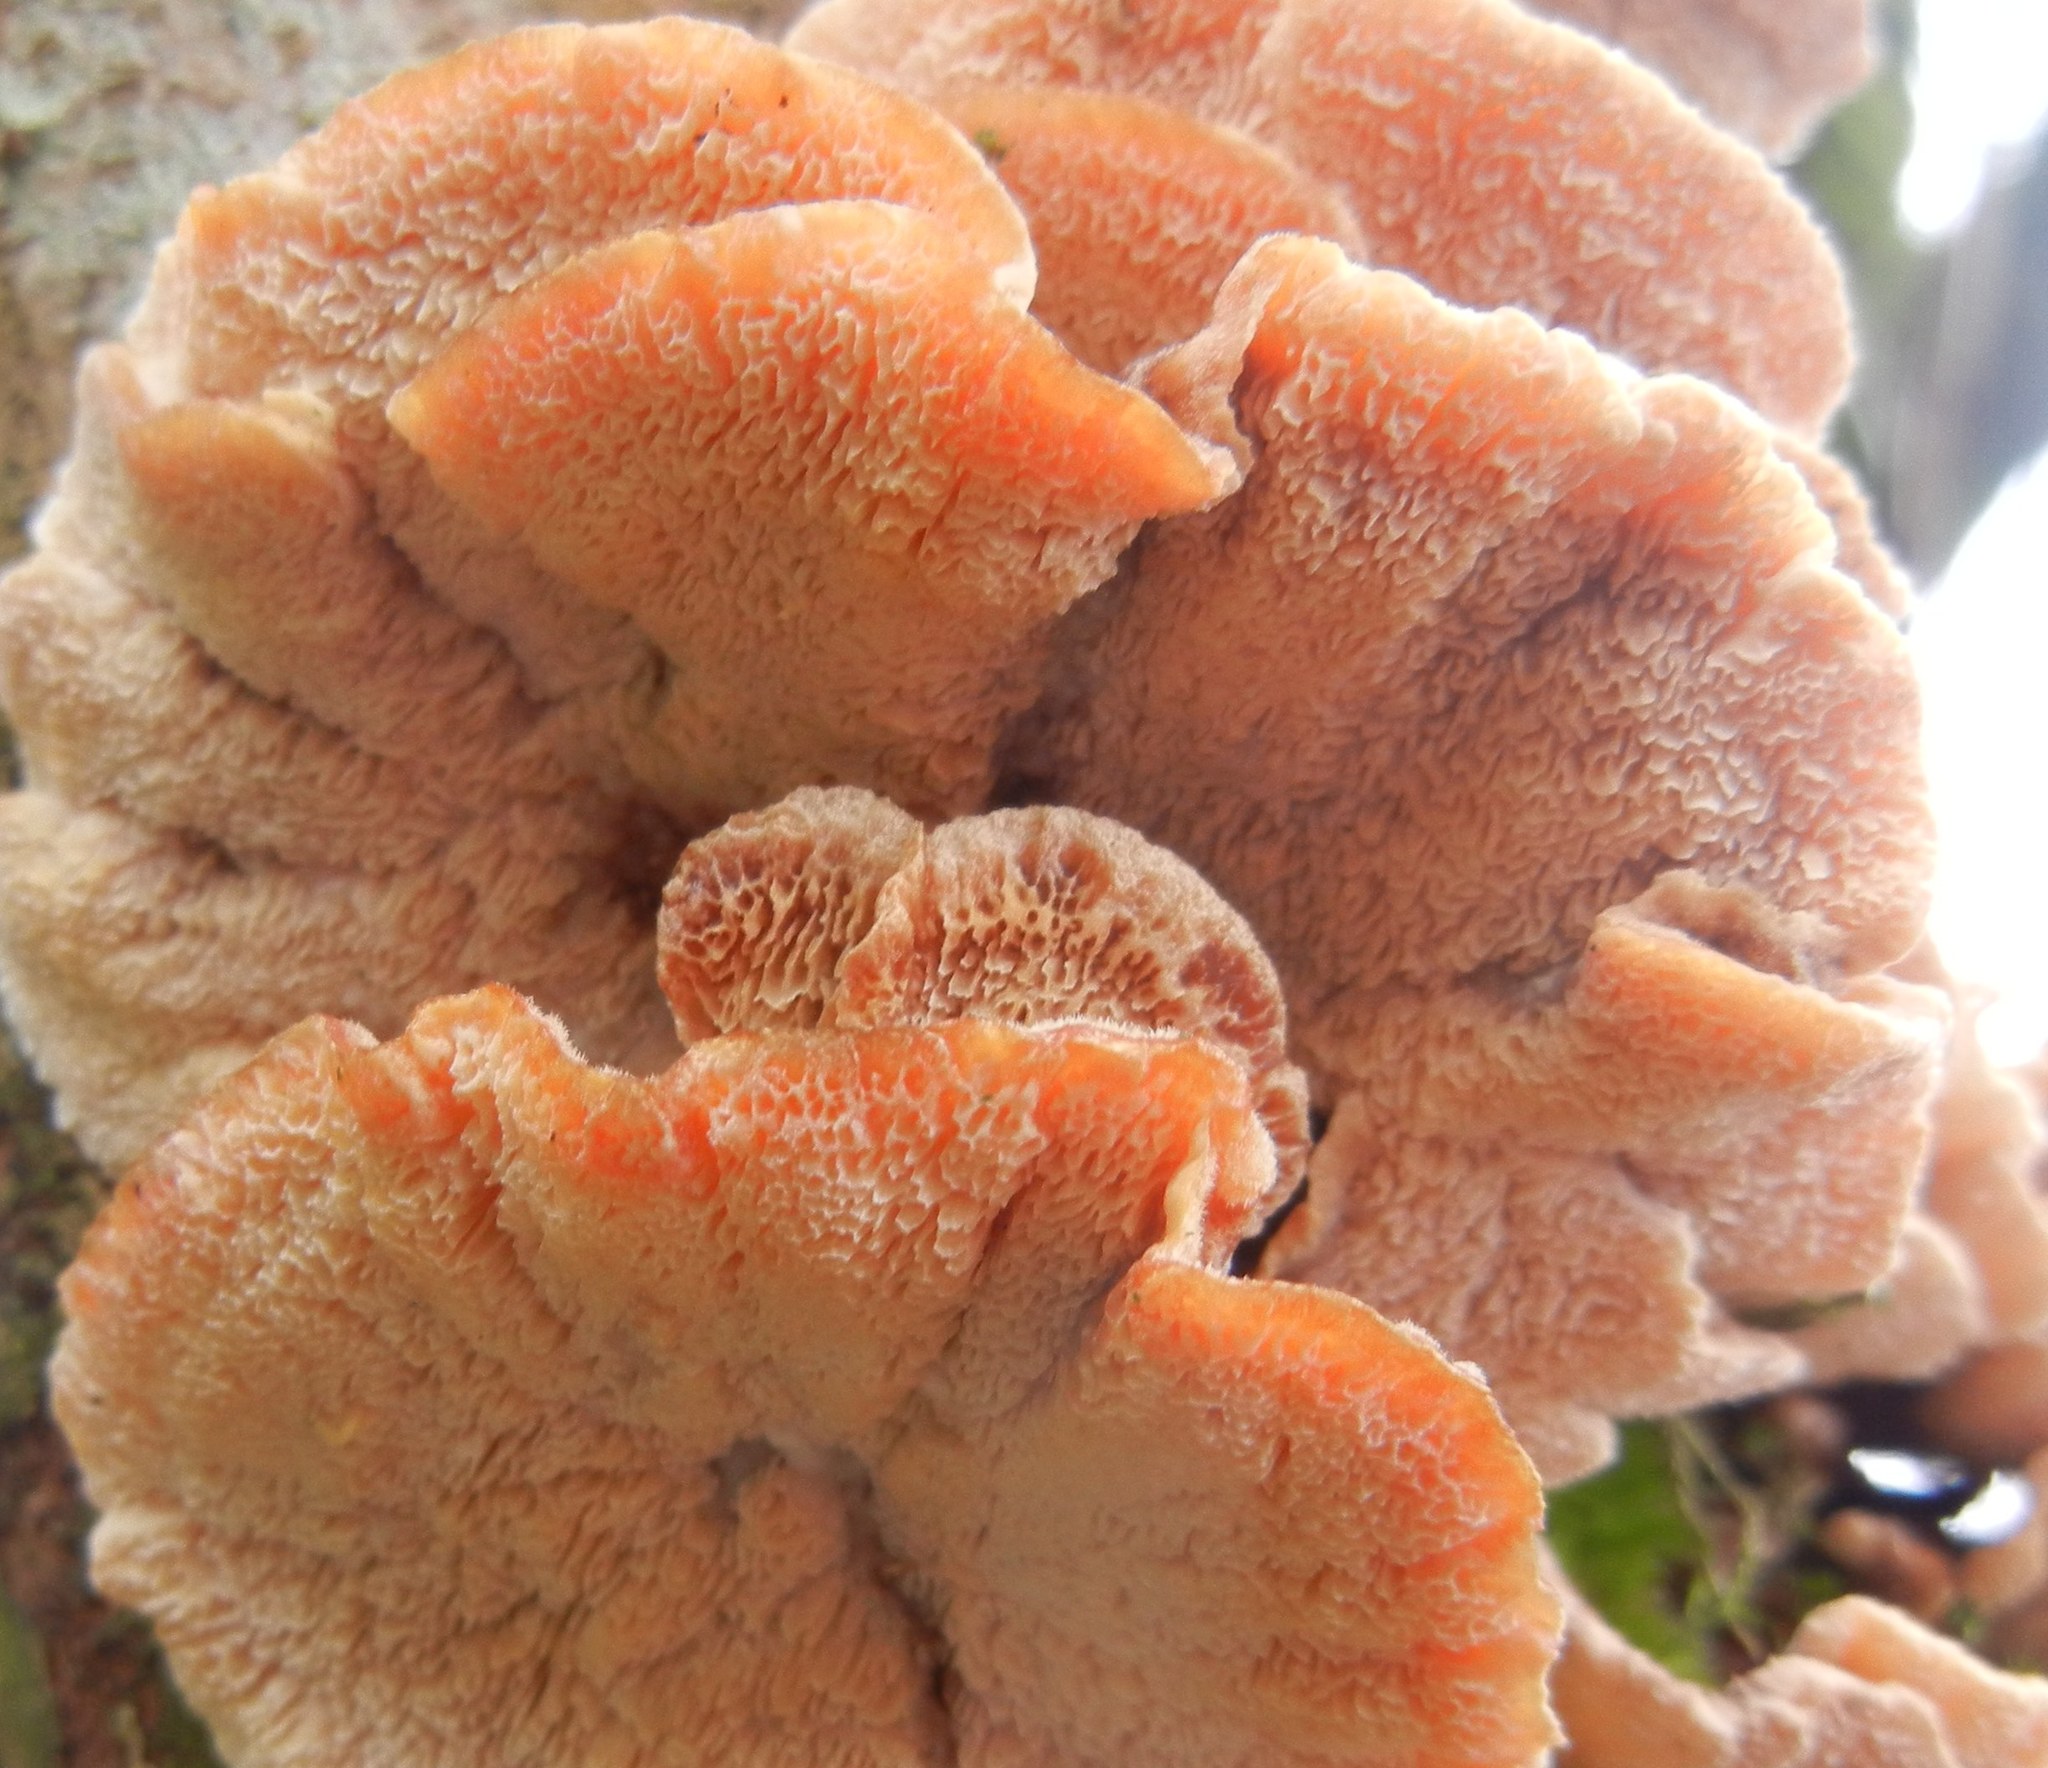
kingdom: Fungi
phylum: Basidiomycota
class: Agaricomycetes
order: Polyporales
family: Polyporaceae
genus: Trametes
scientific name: Trametes versicolor
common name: Turkeytail
